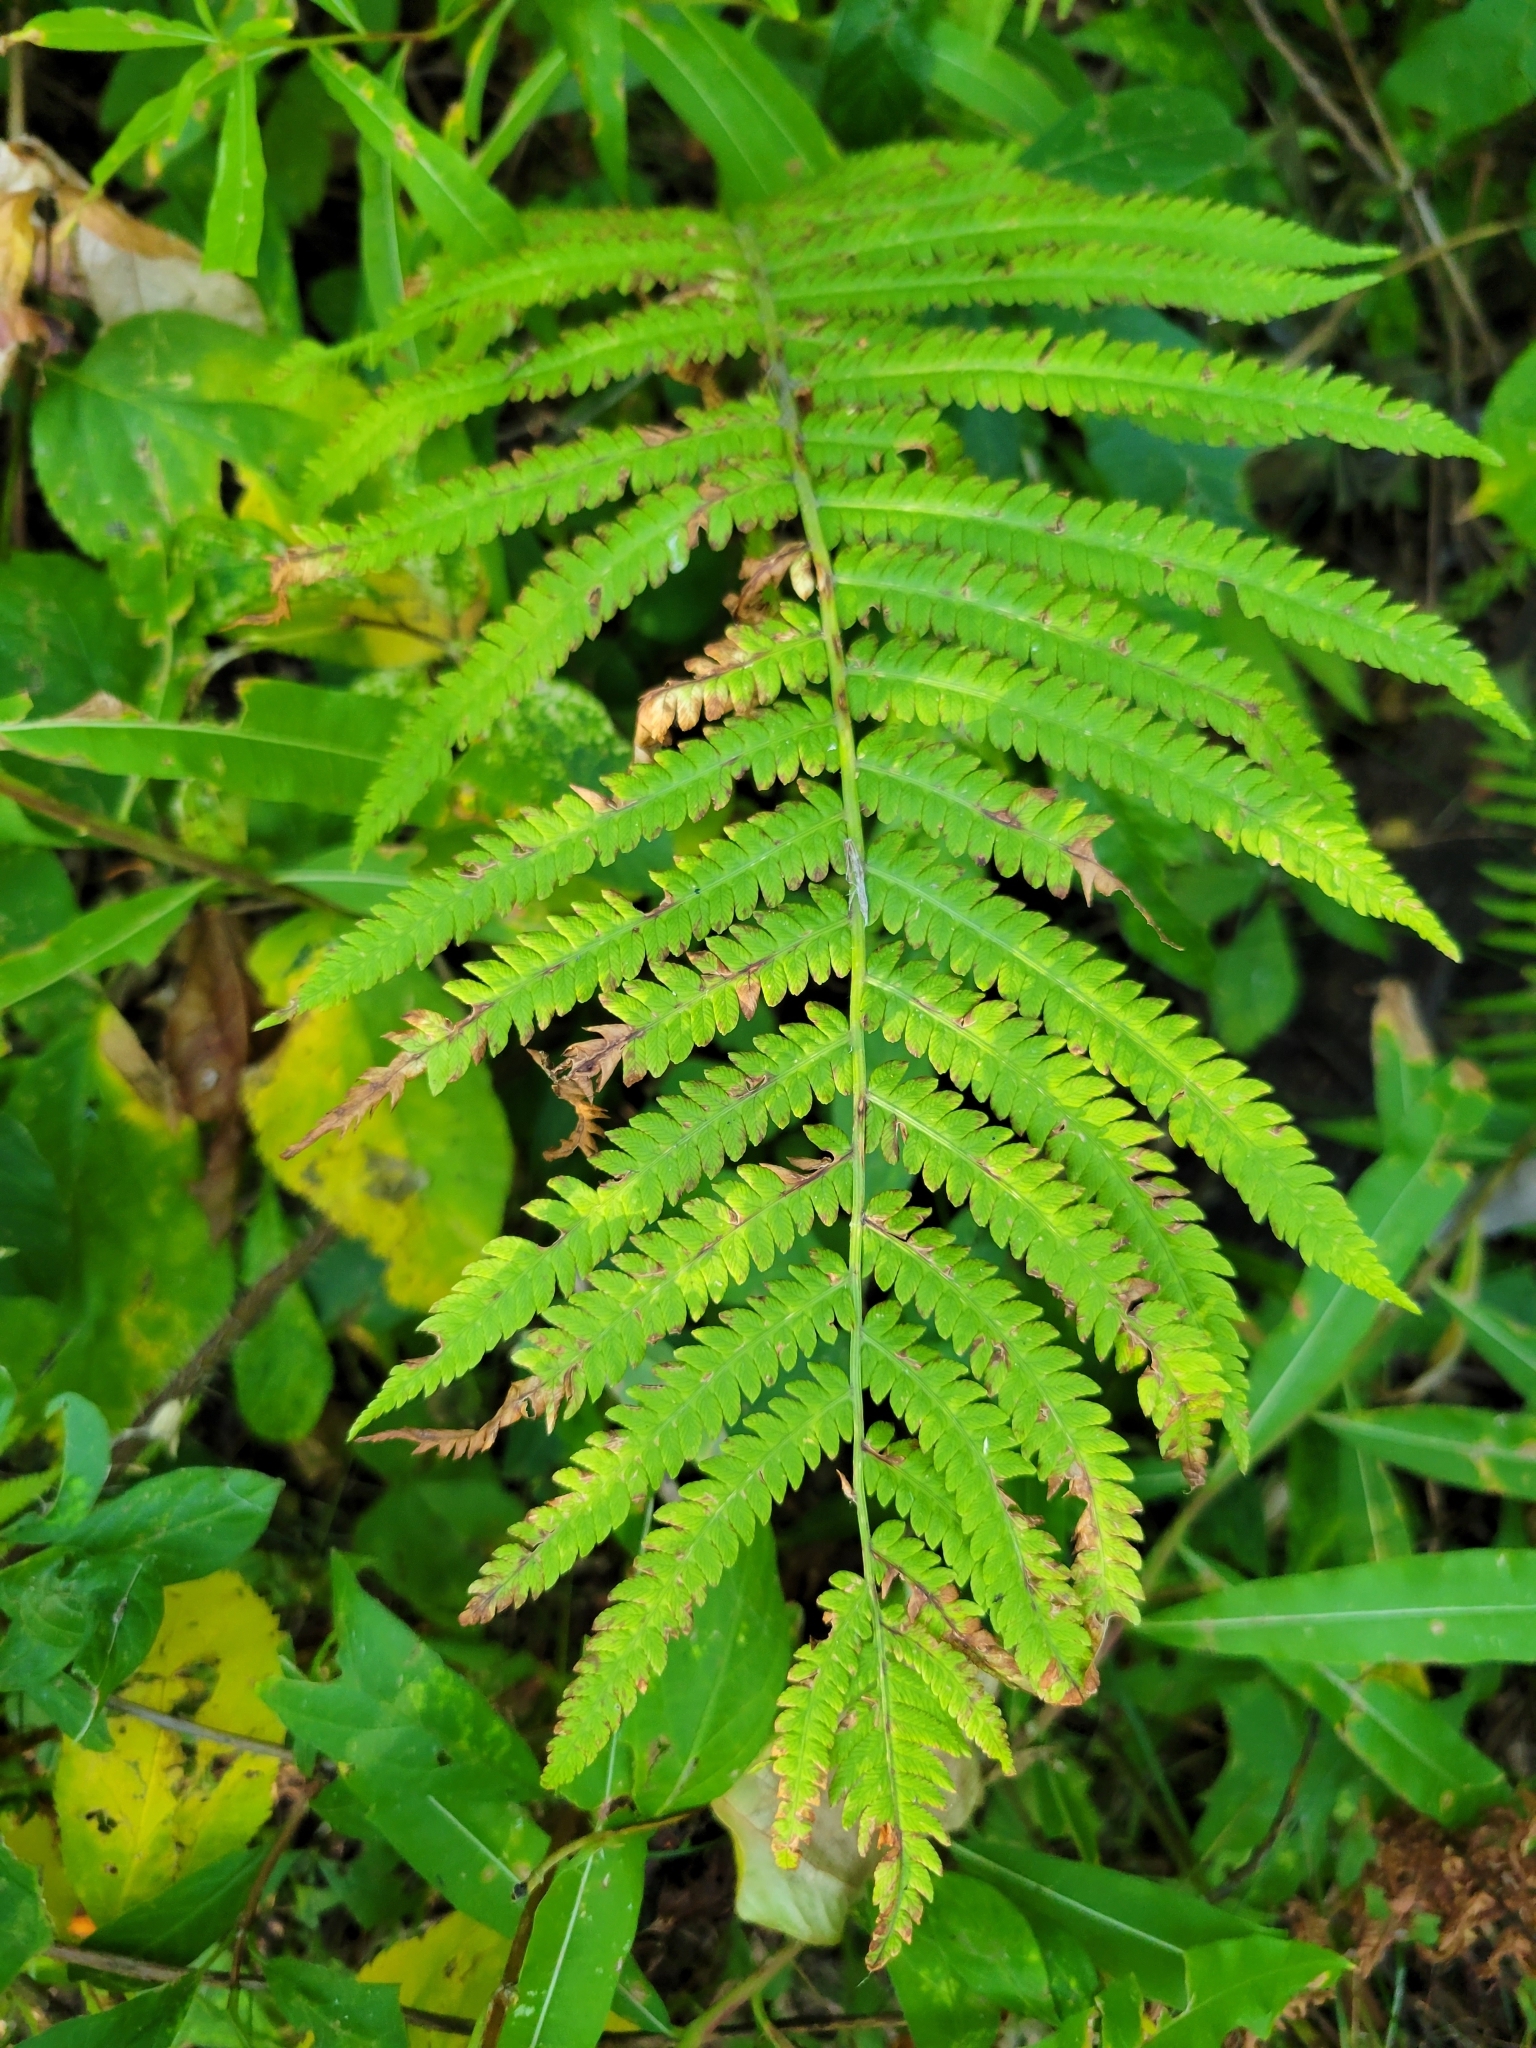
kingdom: Plantae
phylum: Tracheophyta
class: Polypodiopsida
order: Polypodiales
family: Onocleaceae
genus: Matteuccia
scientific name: Matteuccia struthiopteris
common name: Ostrich fern
